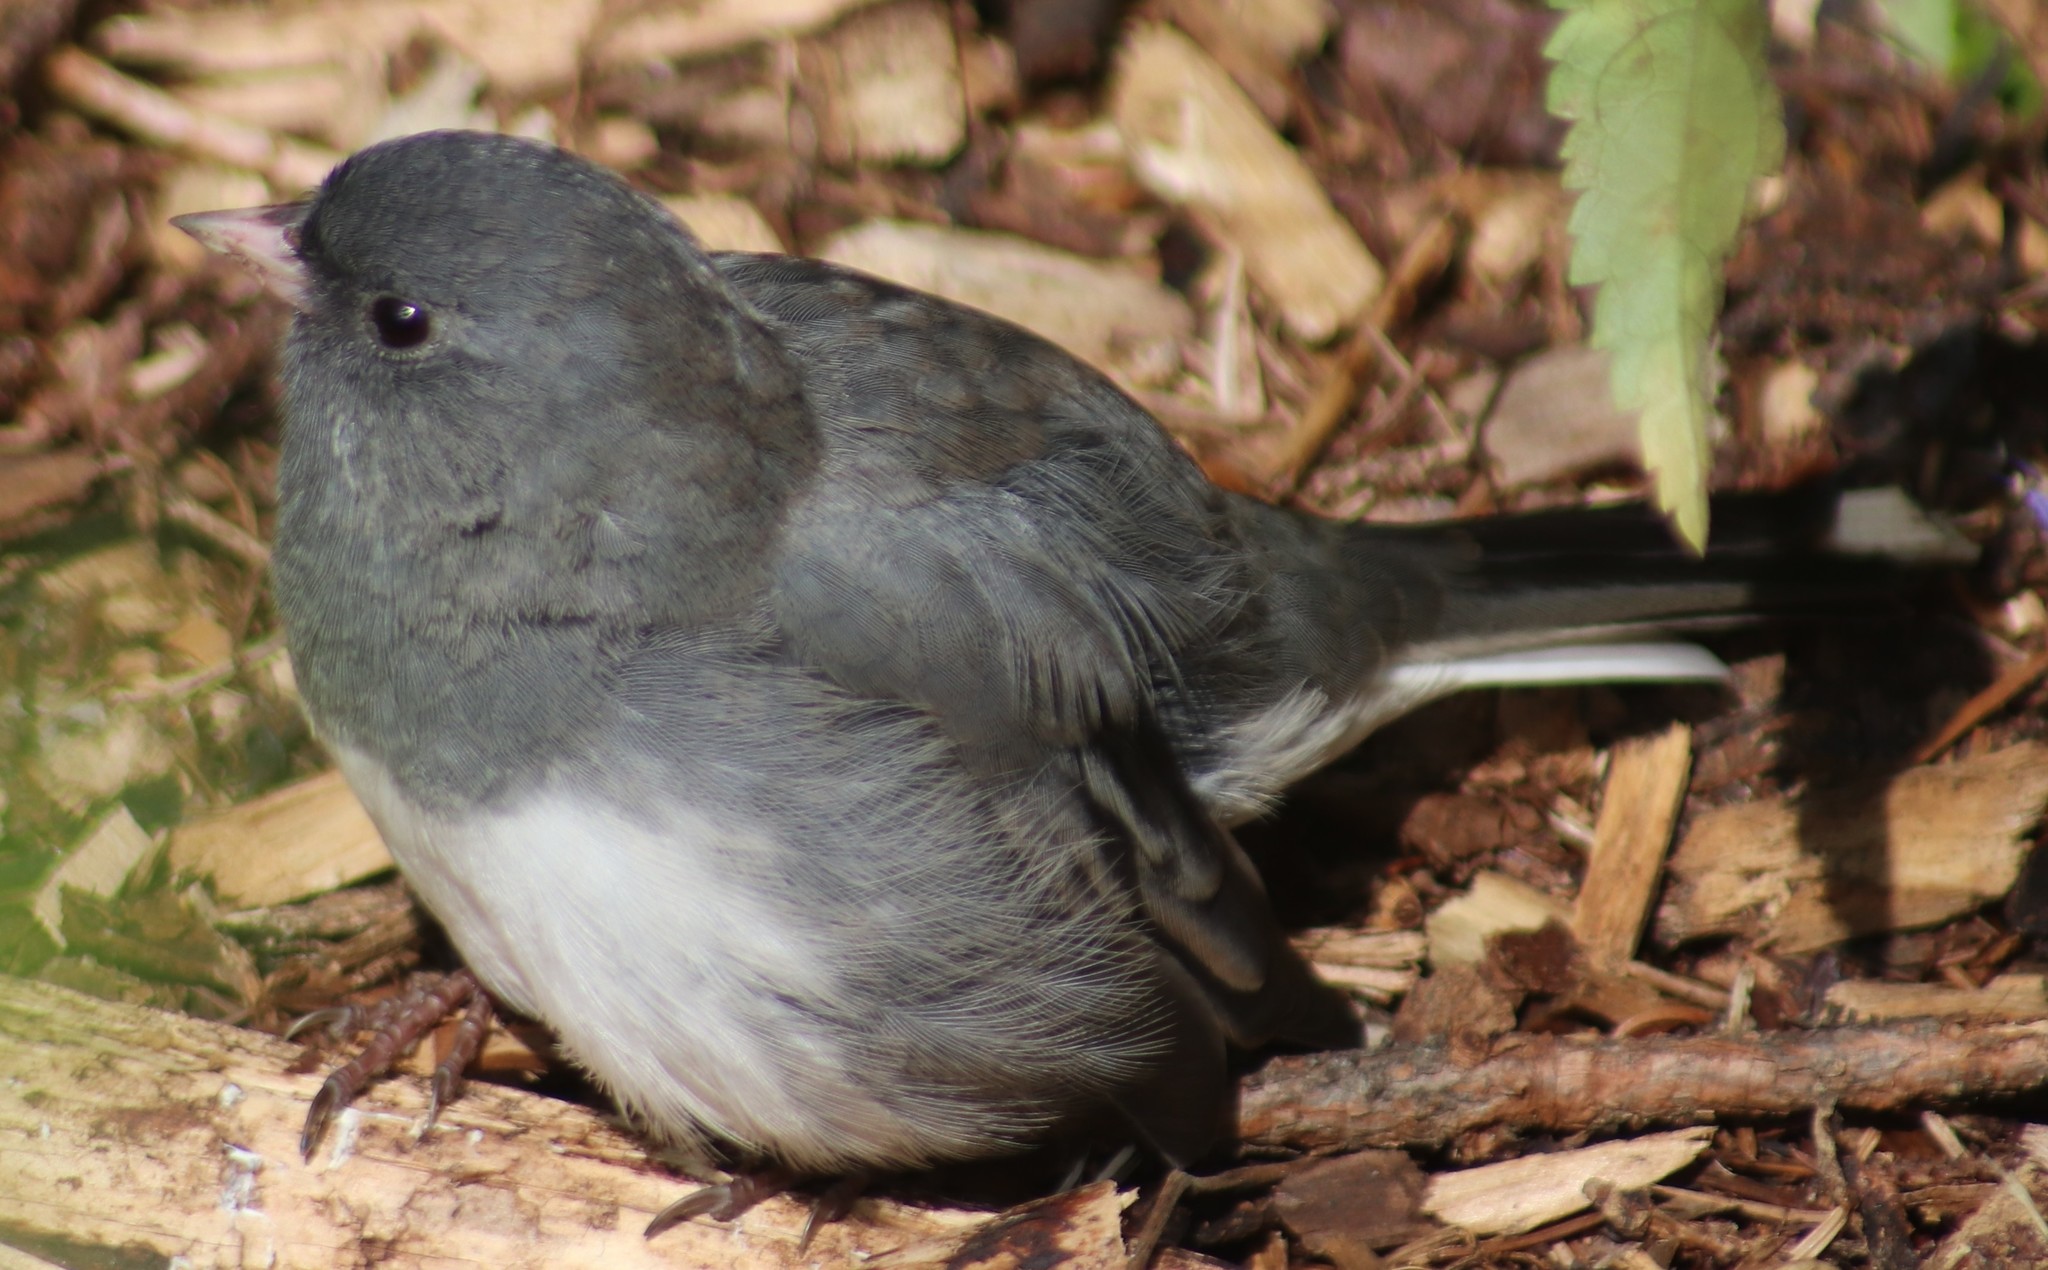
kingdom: Animalia
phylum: Chordata
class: Aves
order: Passeriformes
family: Passerellidae
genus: Junco
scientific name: Junco hyemalis
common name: Dark-eyed junco
